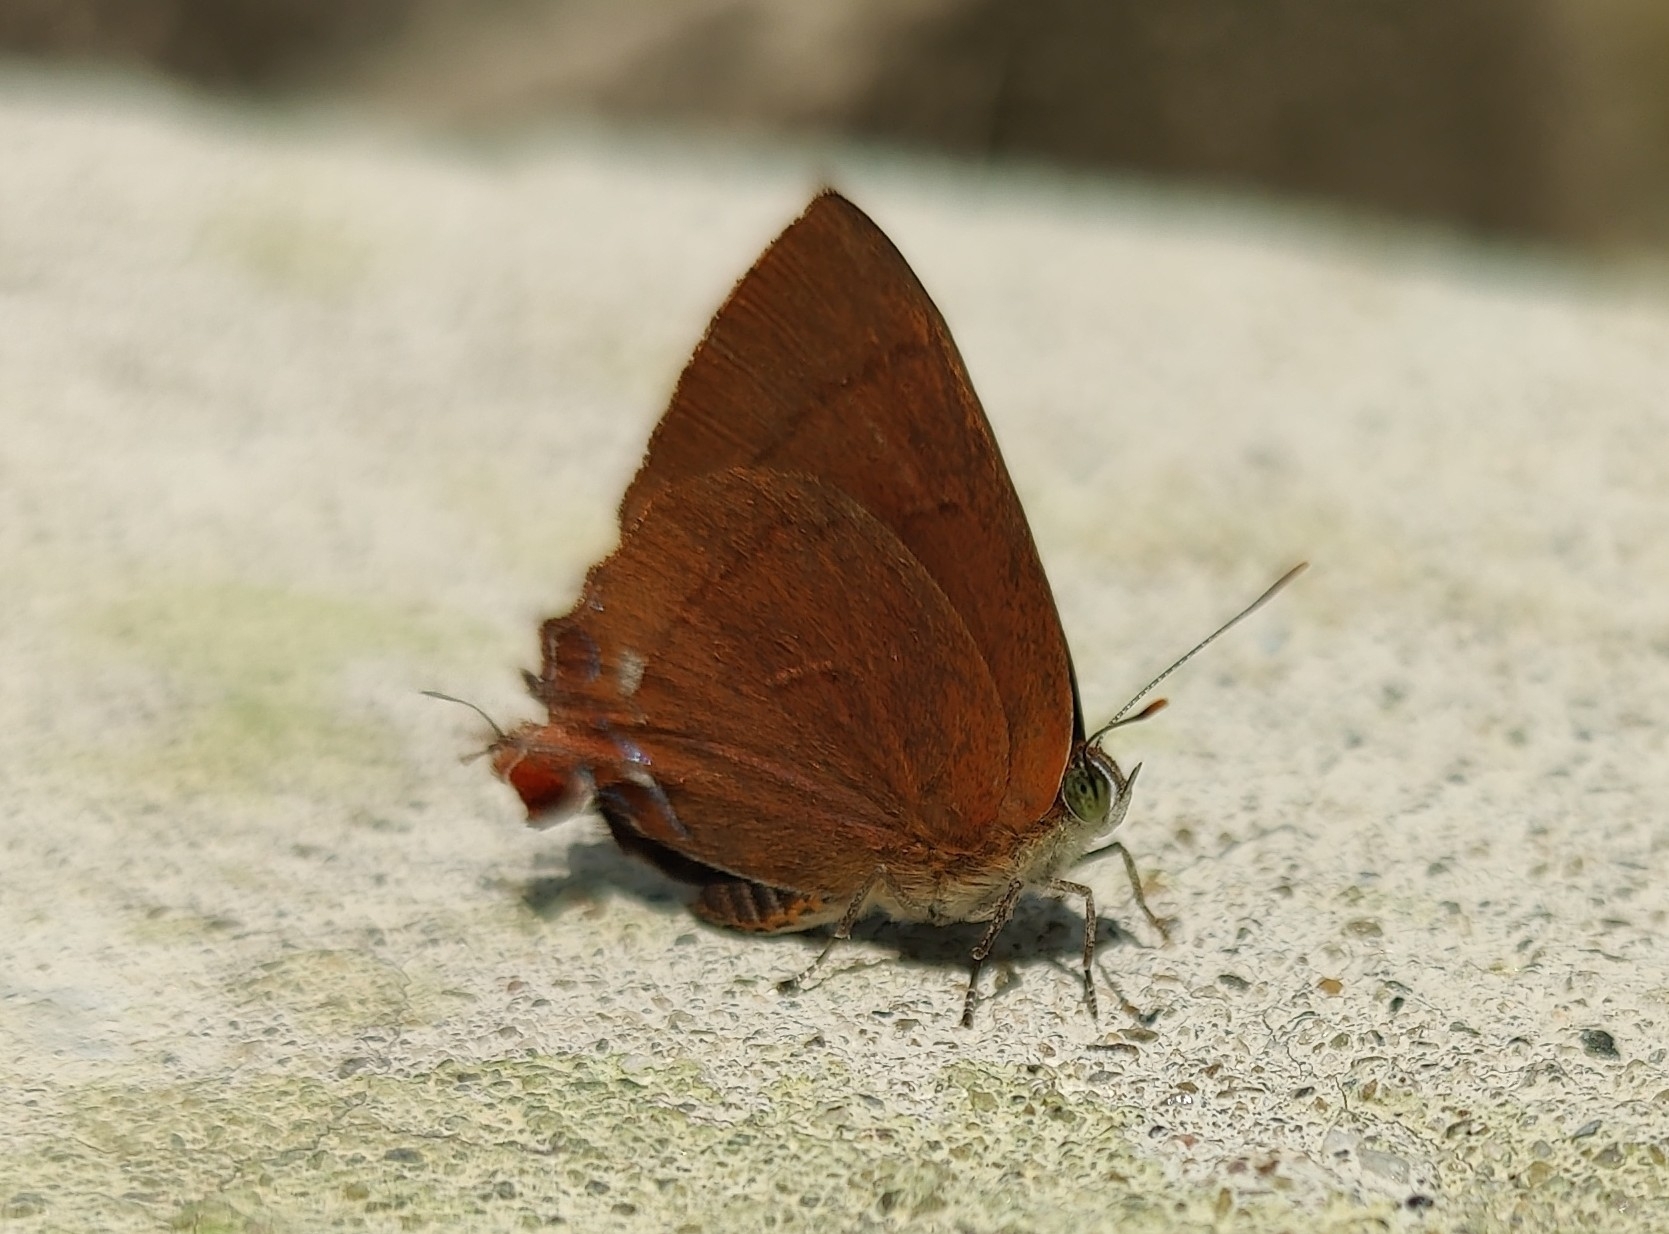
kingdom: Animalia
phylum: Arthropoda
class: Insecta
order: Lepidoptera
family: Lycaenidae
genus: Remelana
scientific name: Remelana jangala
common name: Chocolate royal
